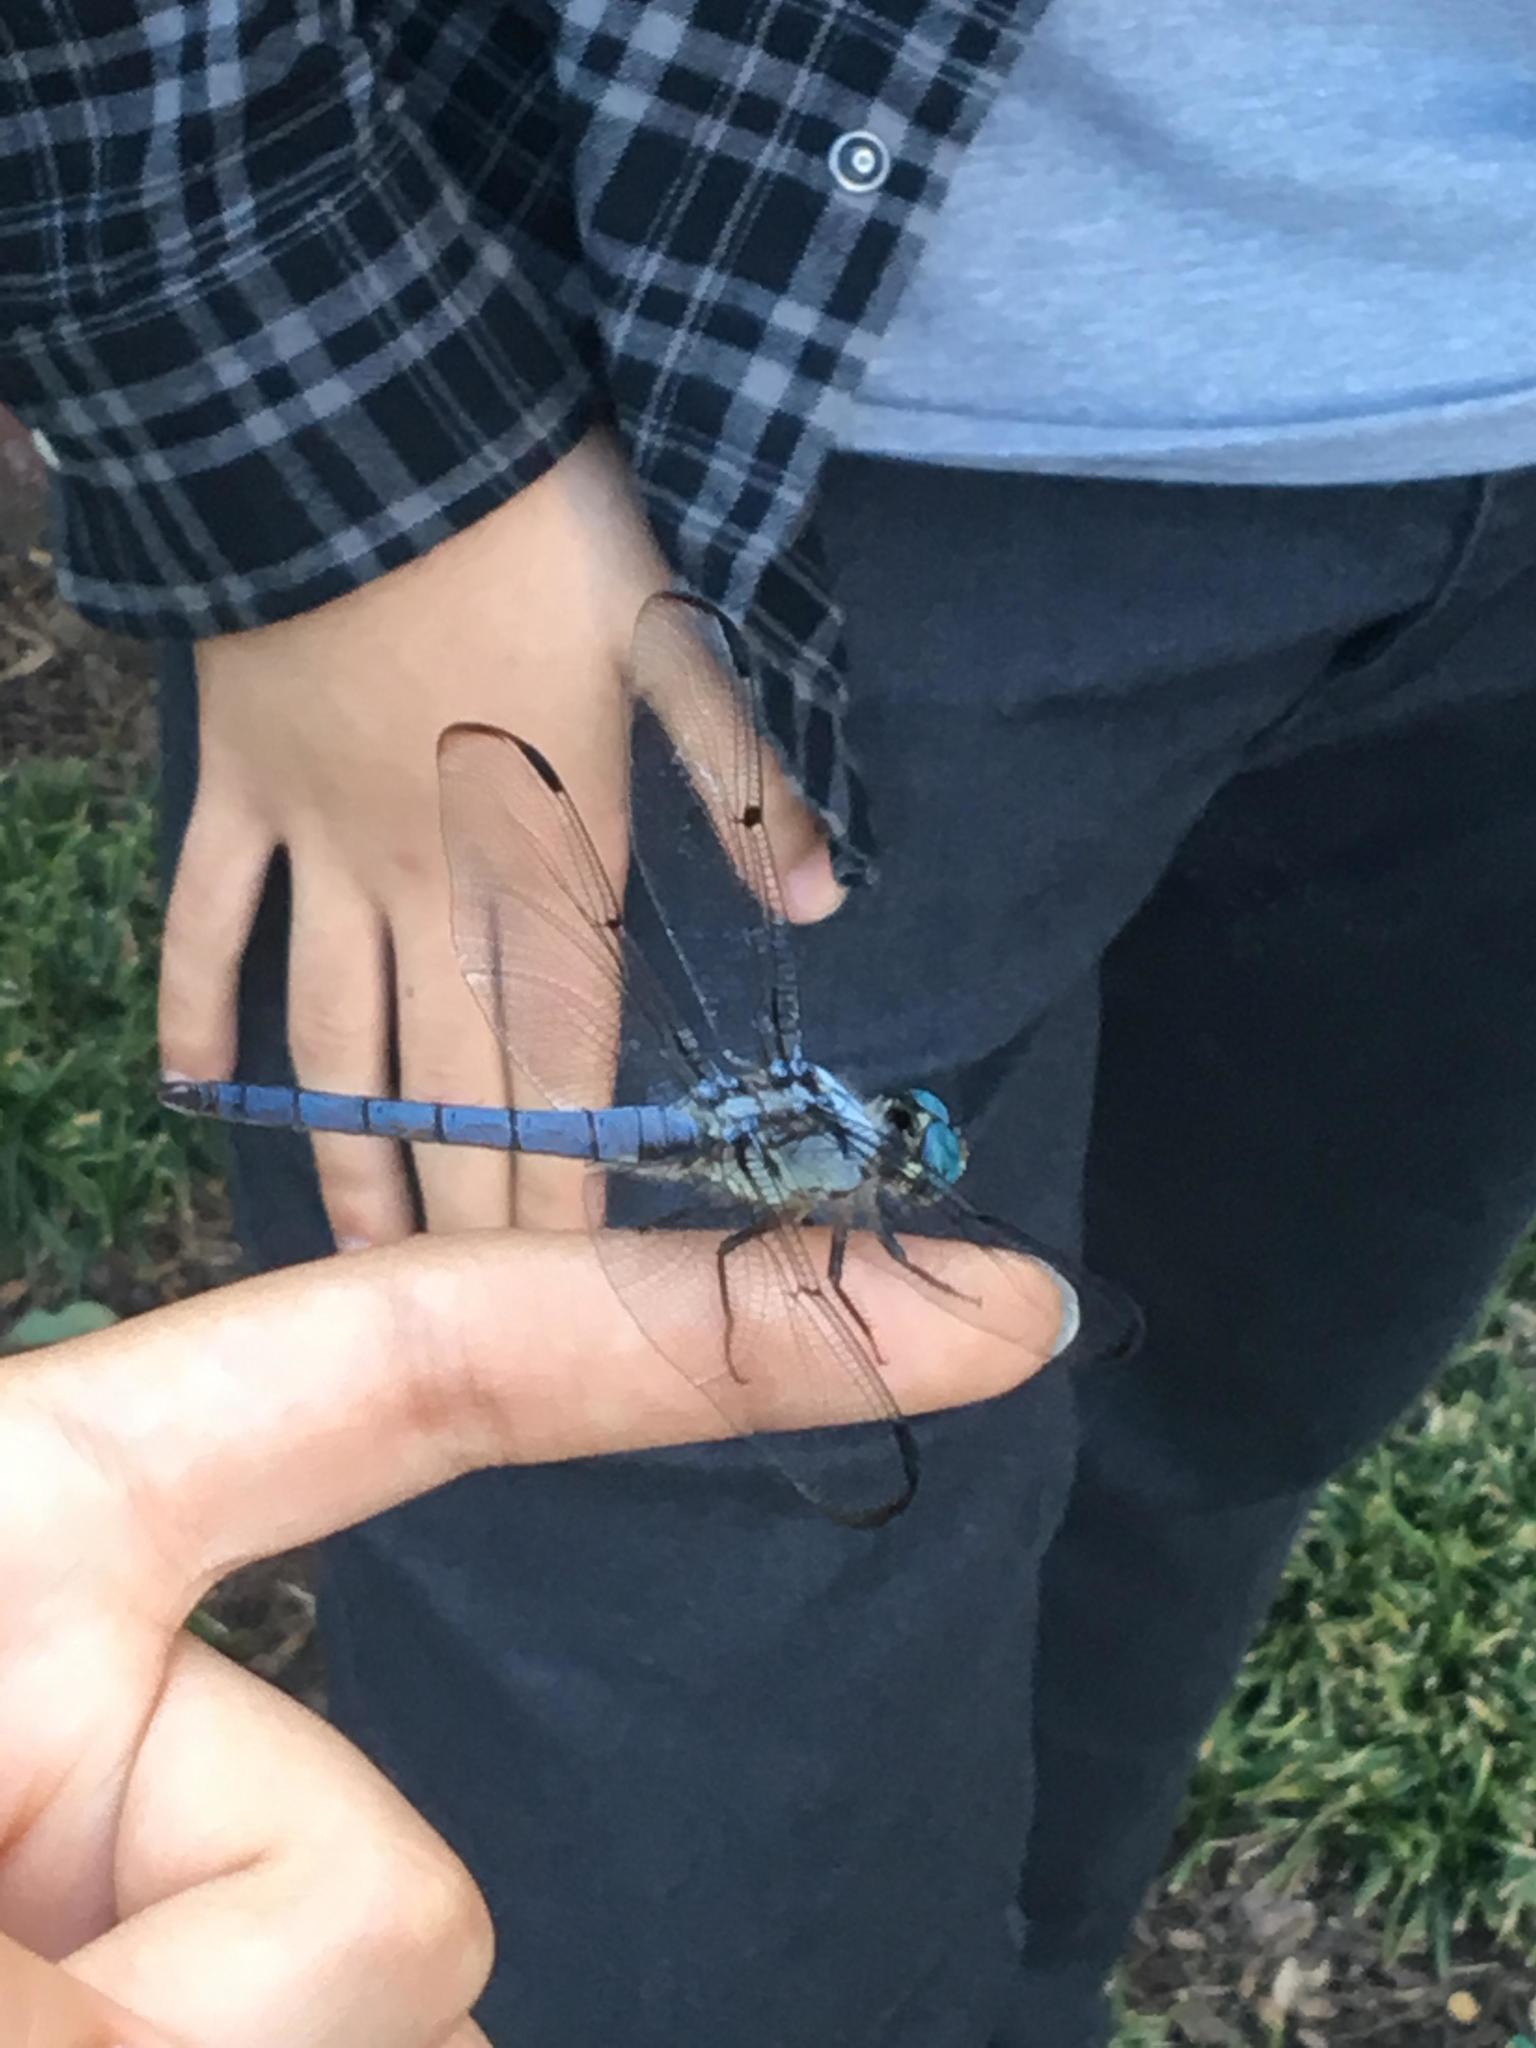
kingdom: Animalia
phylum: Arthropoda
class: Insecta
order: Odonata
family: Libellulidae
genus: Libellula
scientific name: Libellula vibrans
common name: Great blue skimmer
